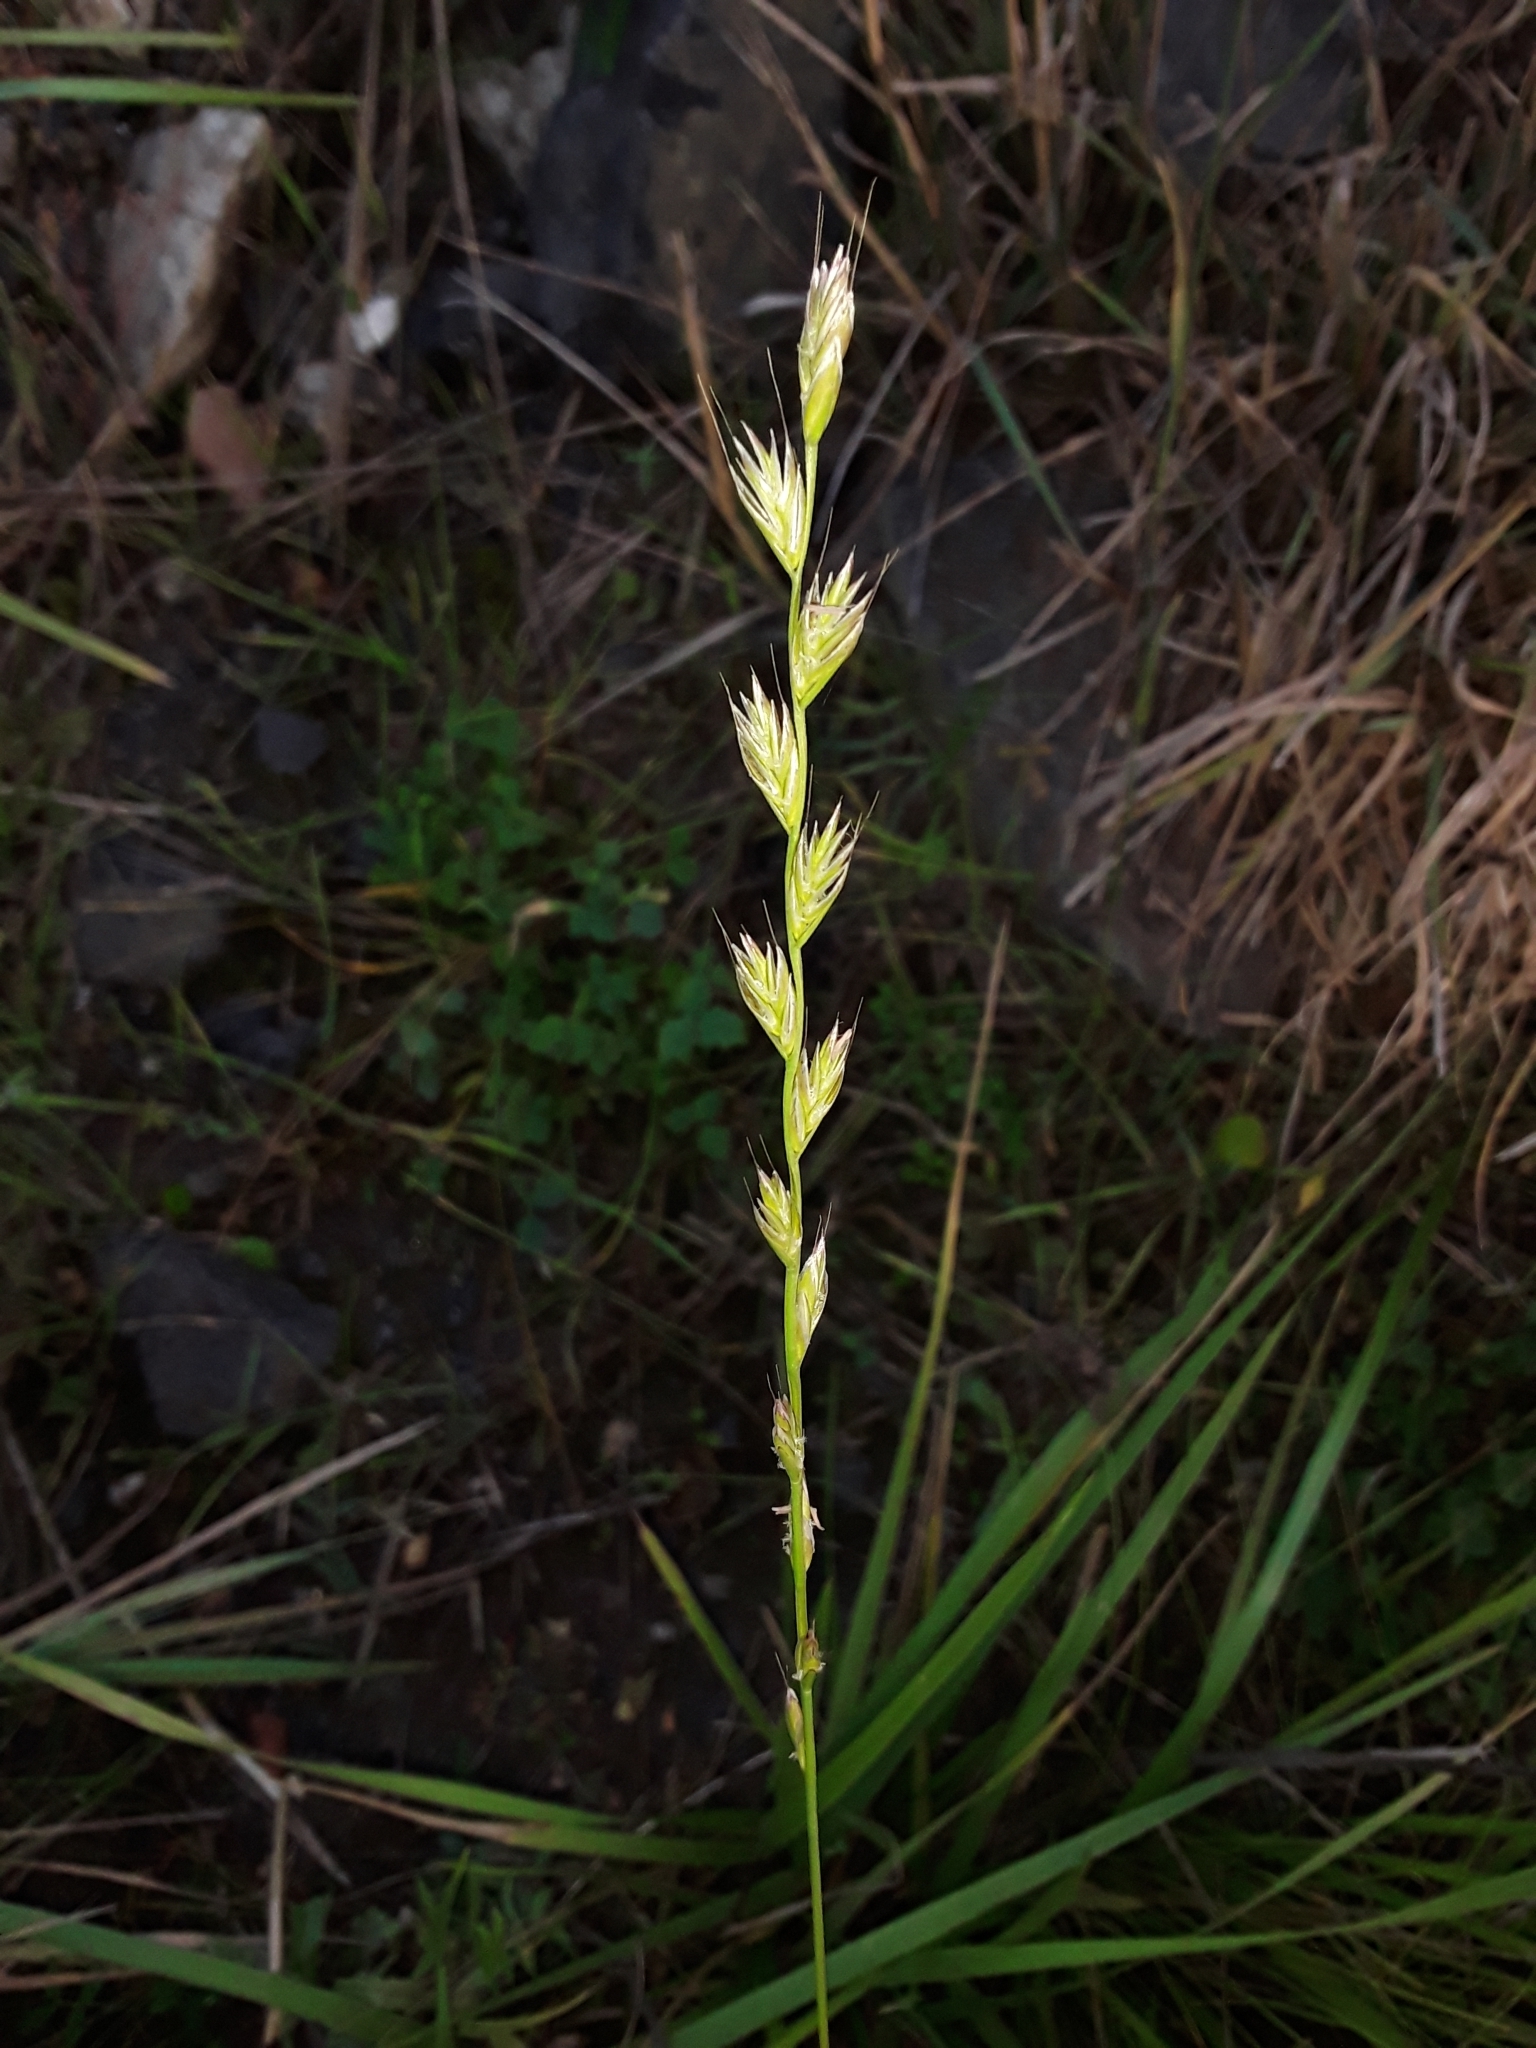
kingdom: Plantae
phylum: Tracheophyta
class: Liliopsida
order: Poales
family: Poaceae
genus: Lolium
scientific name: Lolium multiflorum
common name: Annual ryegrass
